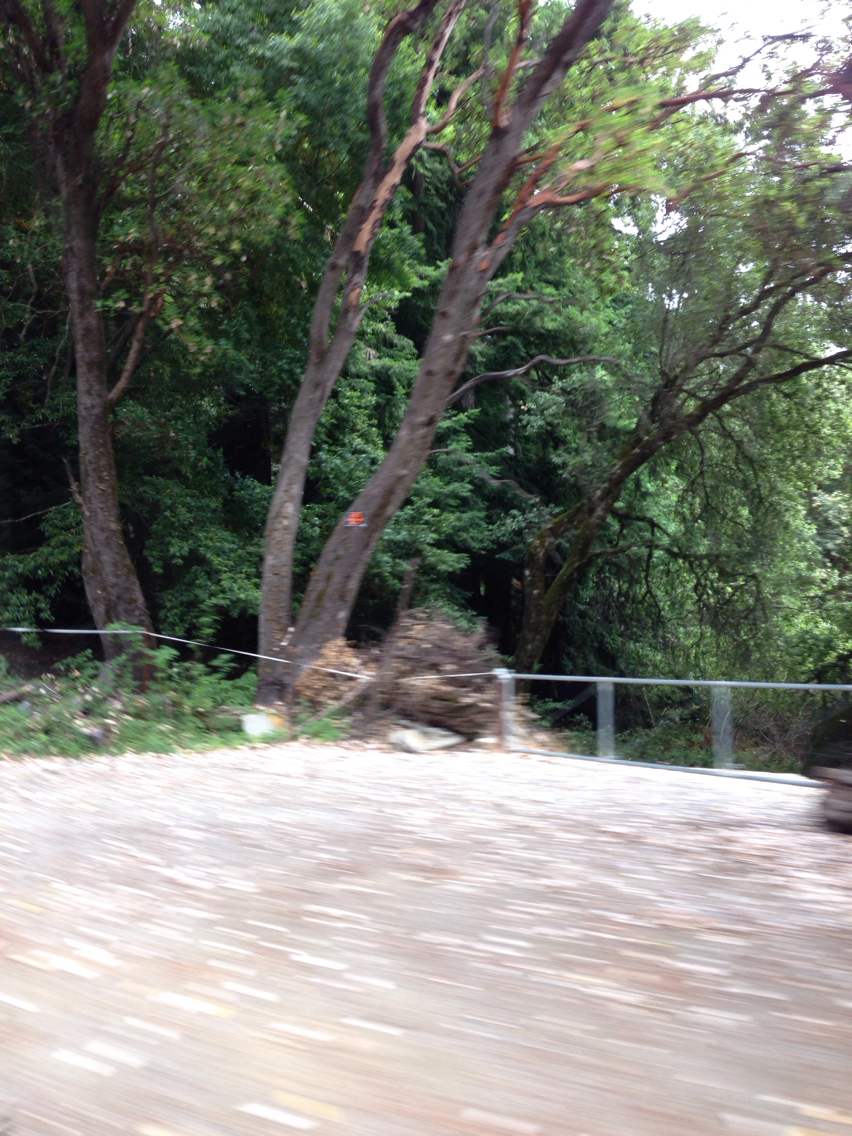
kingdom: Plantae
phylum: Tracheophyta
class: Magnoliopsida
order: Ericales
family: Ericaceae
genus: Arbutus
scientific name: Arbutus menziesii
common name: Pacific madrone
